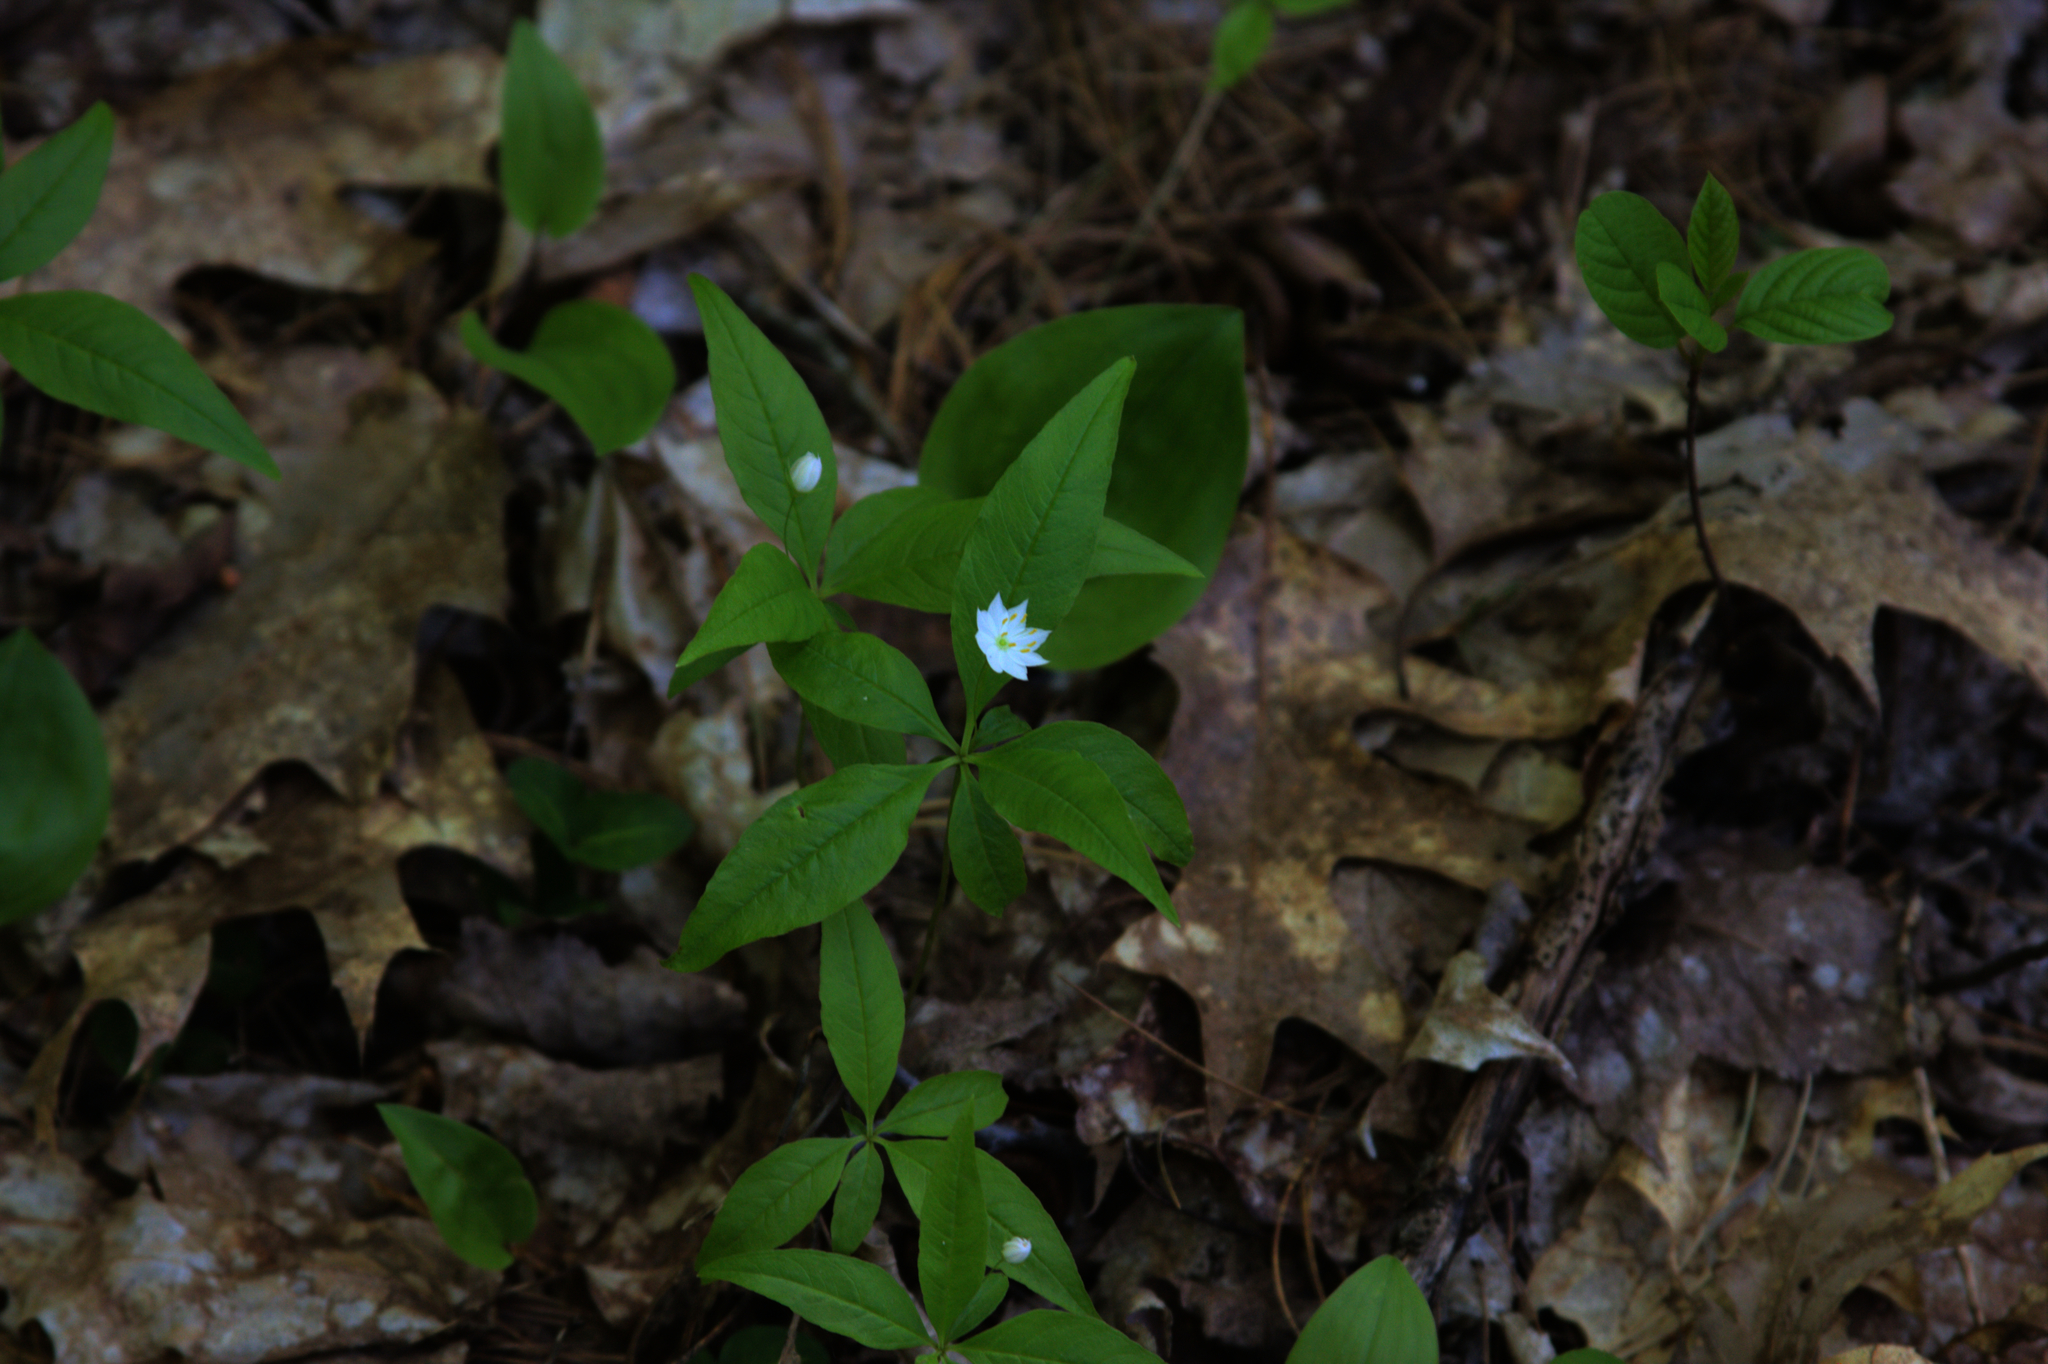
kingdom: Plantae
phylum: Tracheophyta
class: Magnoliopsida
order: Ericales
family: Primulaceae
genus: Lysimachia
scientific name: Lysimachia borealis
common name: American starflower
